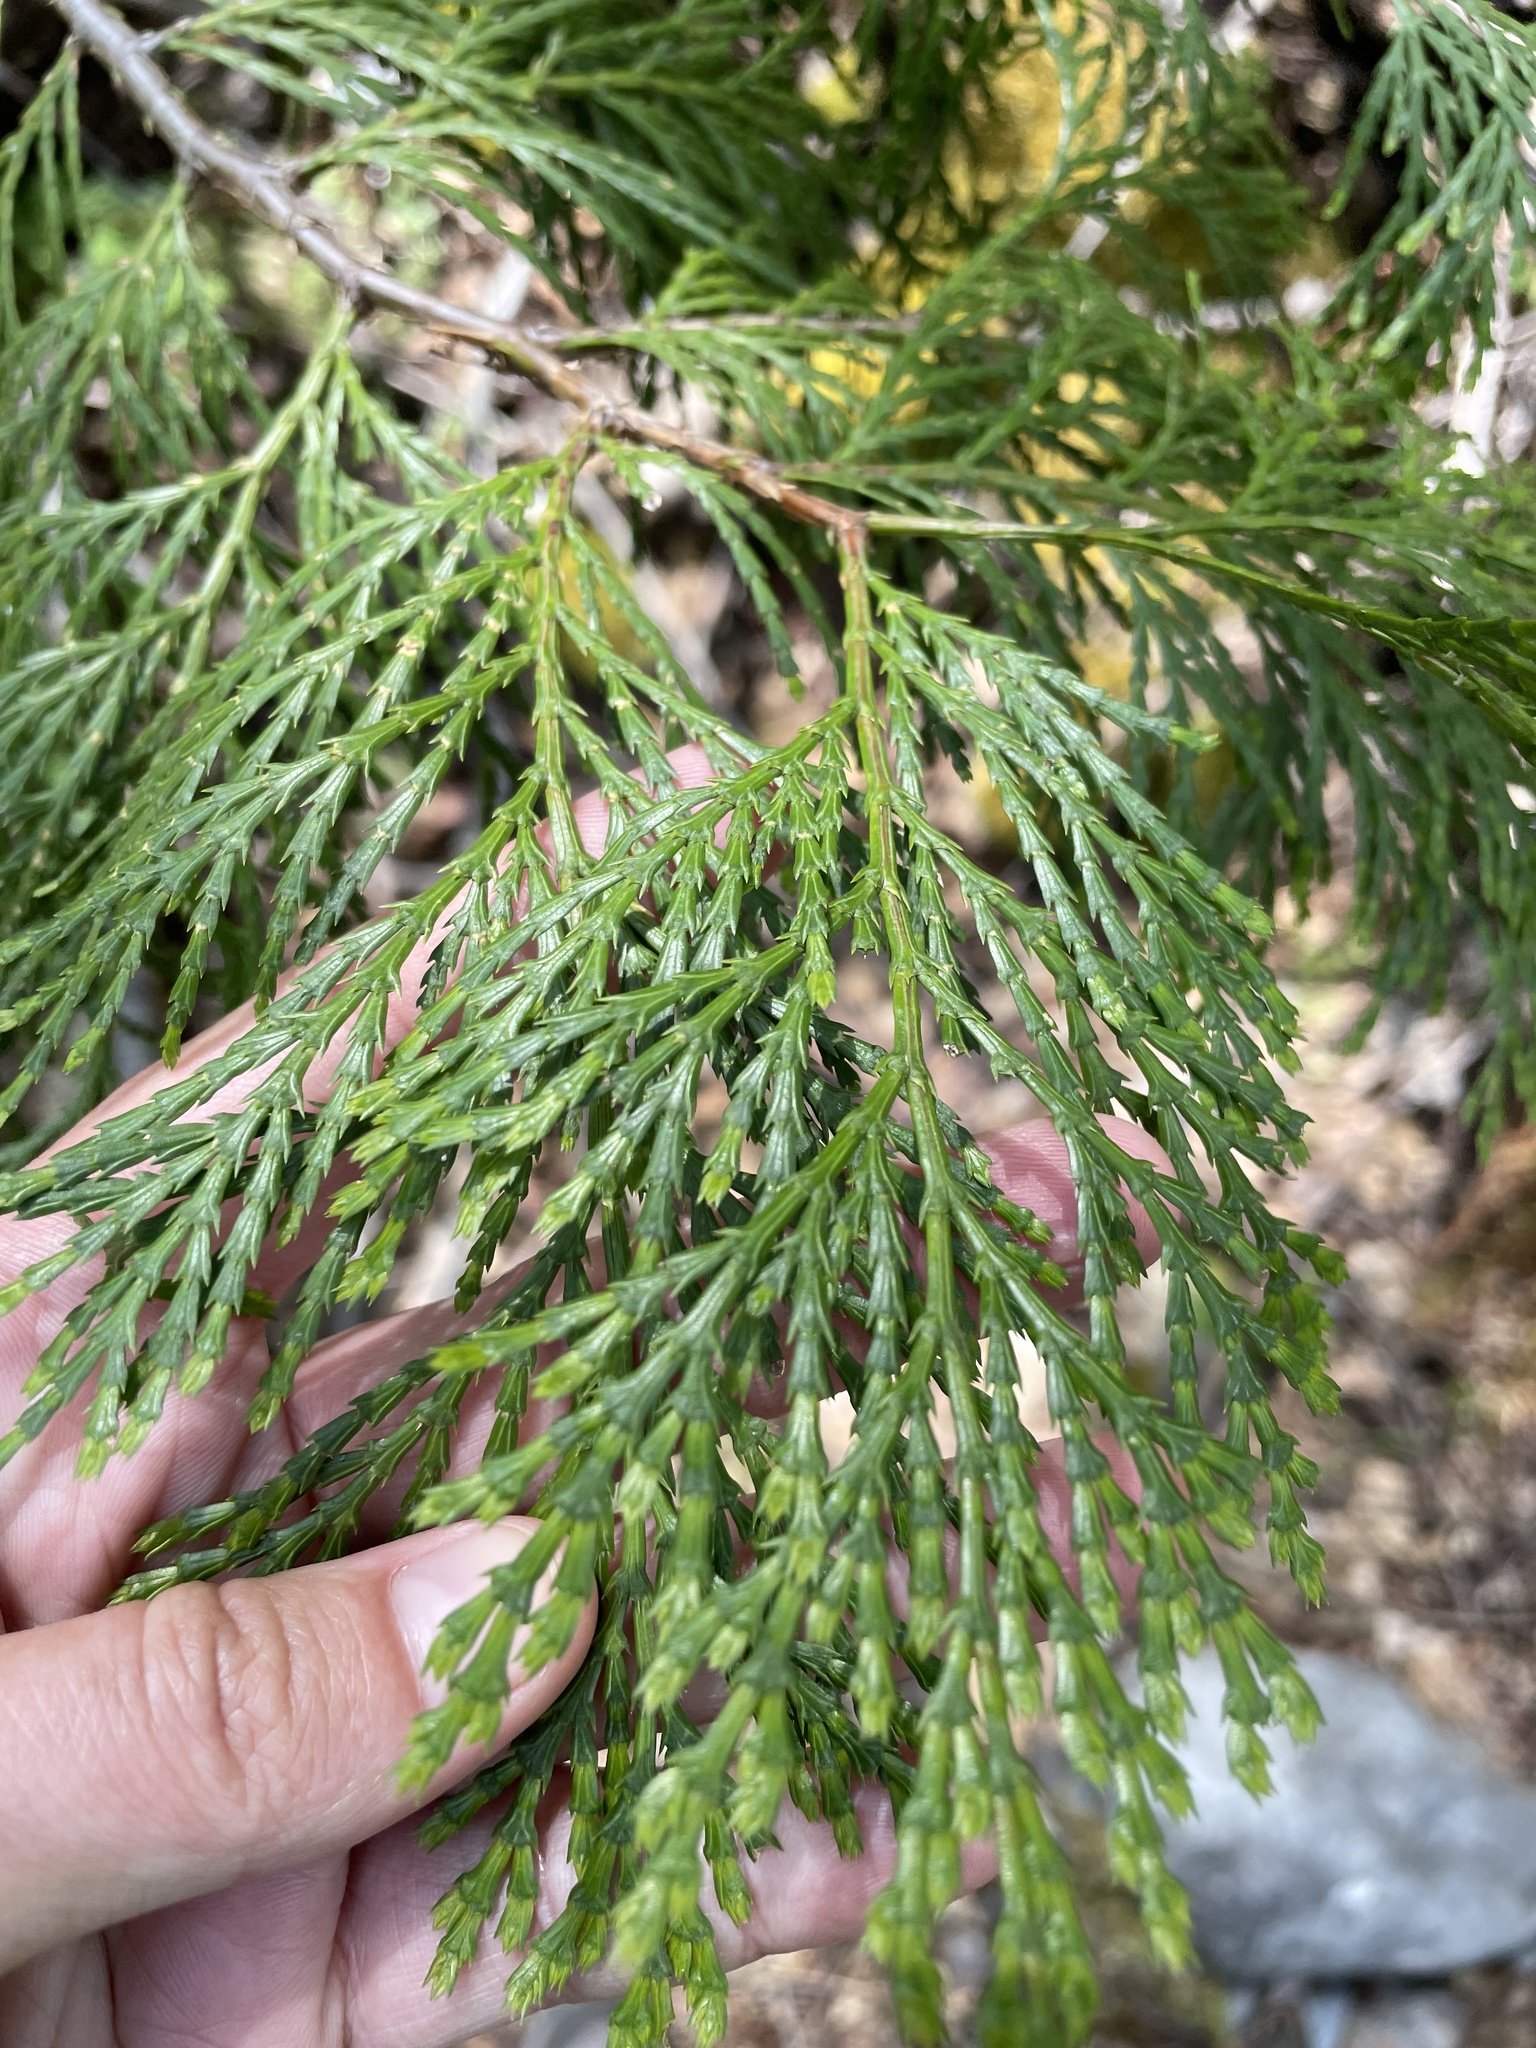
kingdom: Plantae
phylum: Tracheophyta
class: Pinopsida
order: Pinales
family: Cupressaceae
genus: Calocedrus
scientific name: Calocedrus decurrens
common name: Californian incense-cedar
